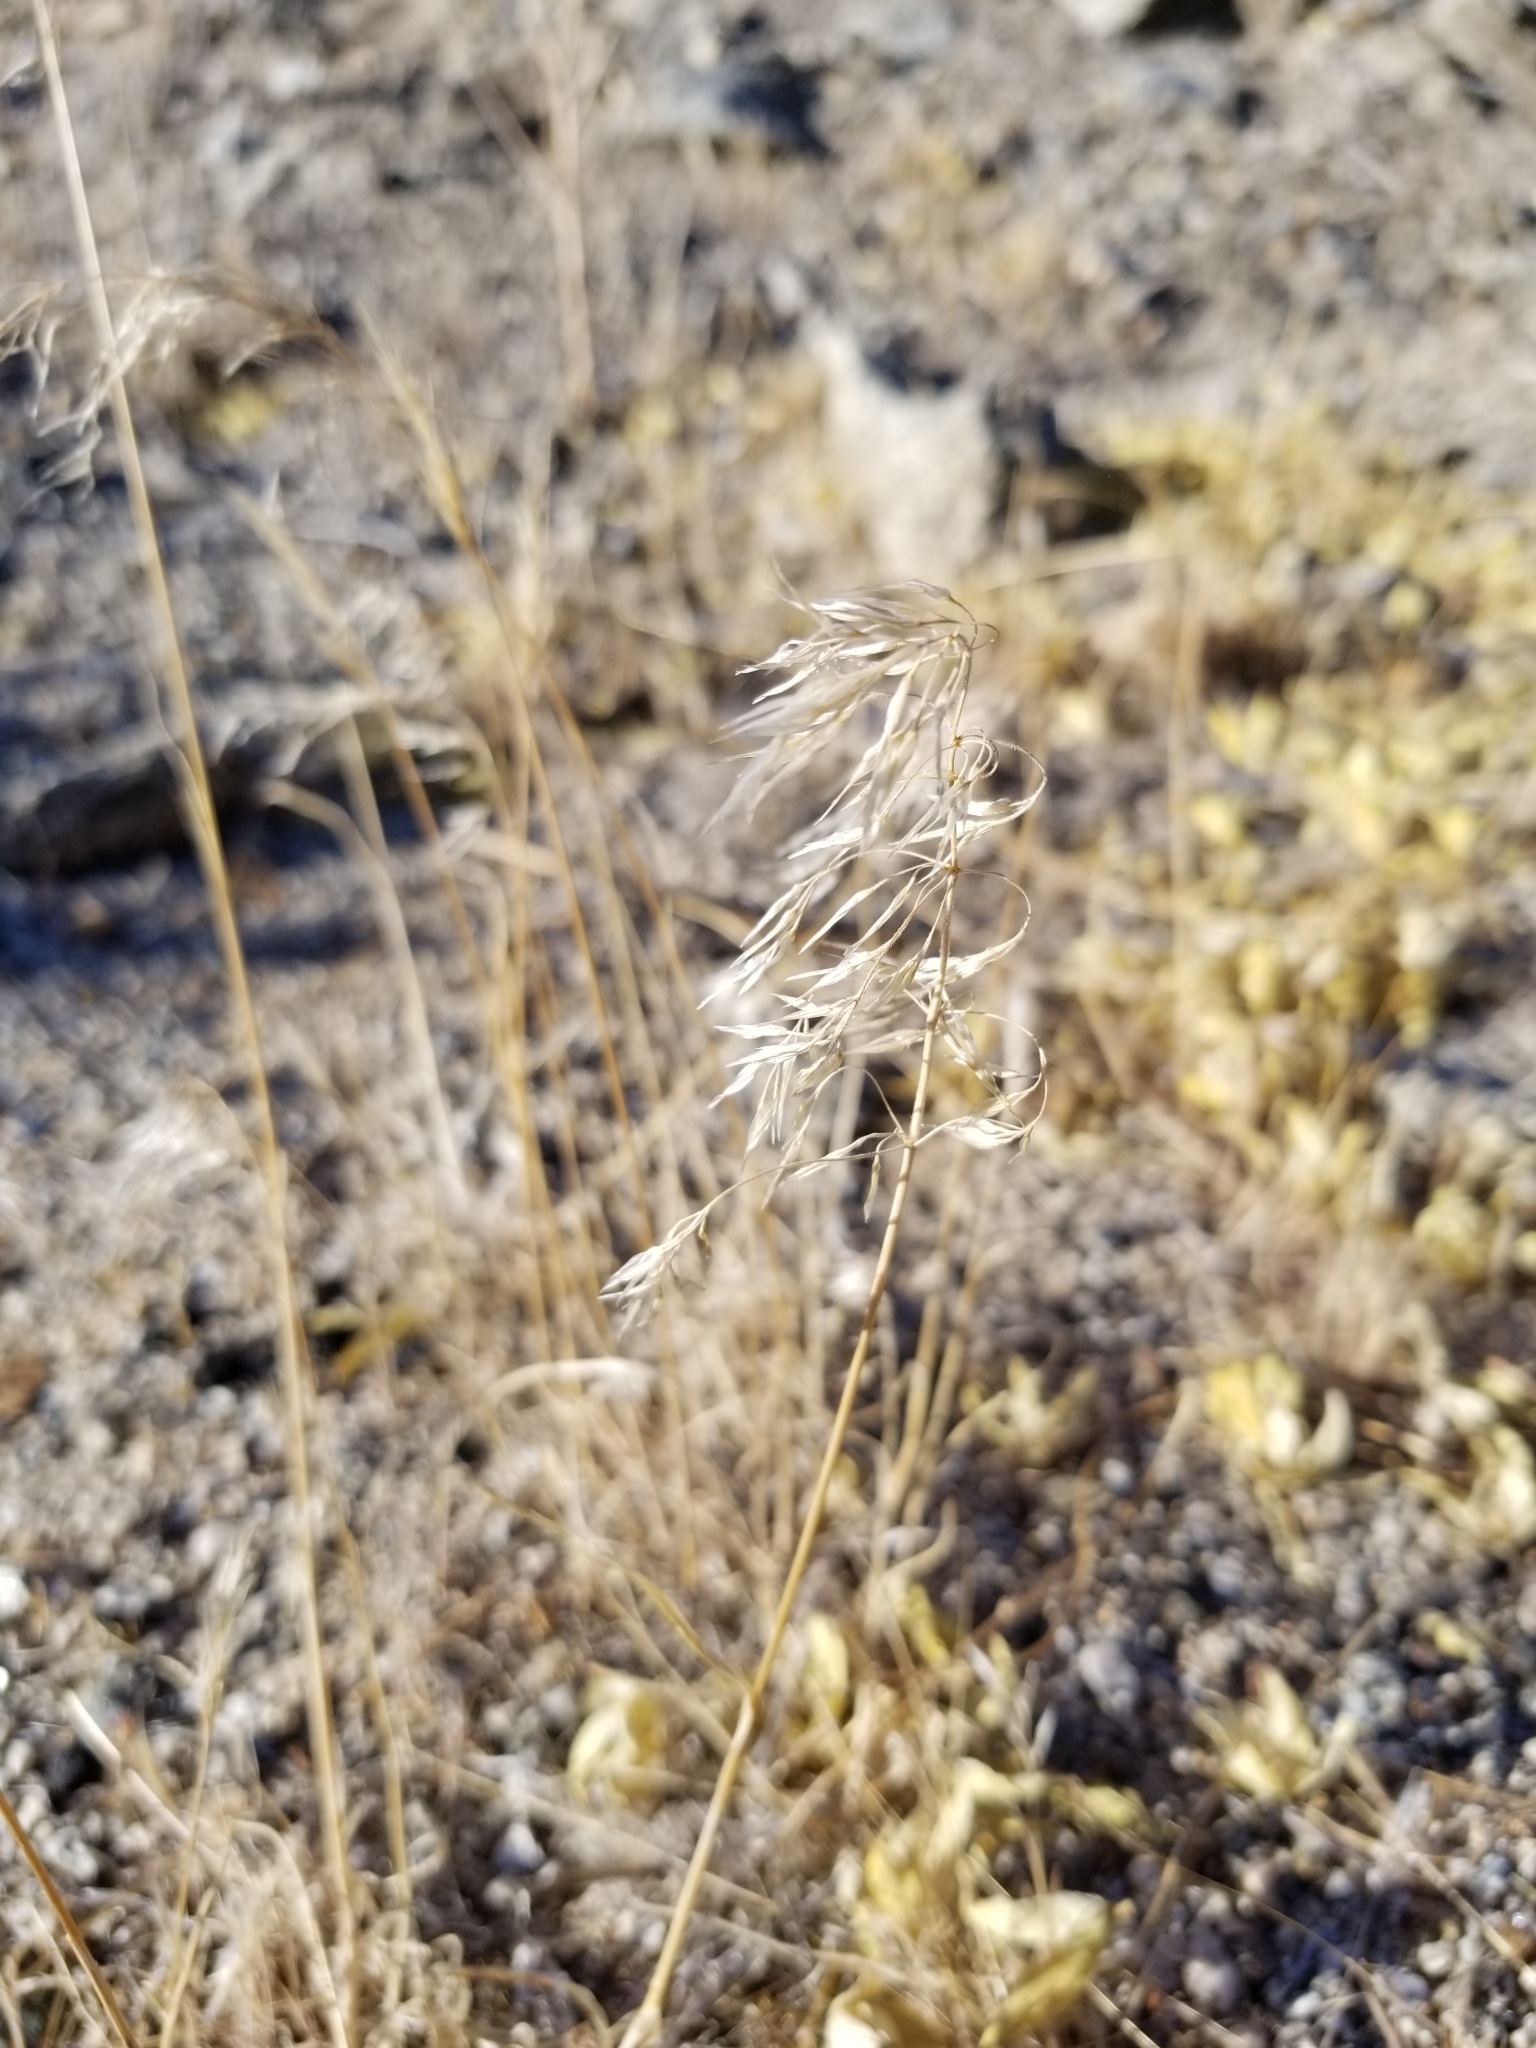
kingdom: Plantae
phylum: Tracheophyta
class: Liliopsida
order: Poales
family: Poaceae
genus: Bromus
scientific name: Bromus tectorum
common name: Cheatgrass
